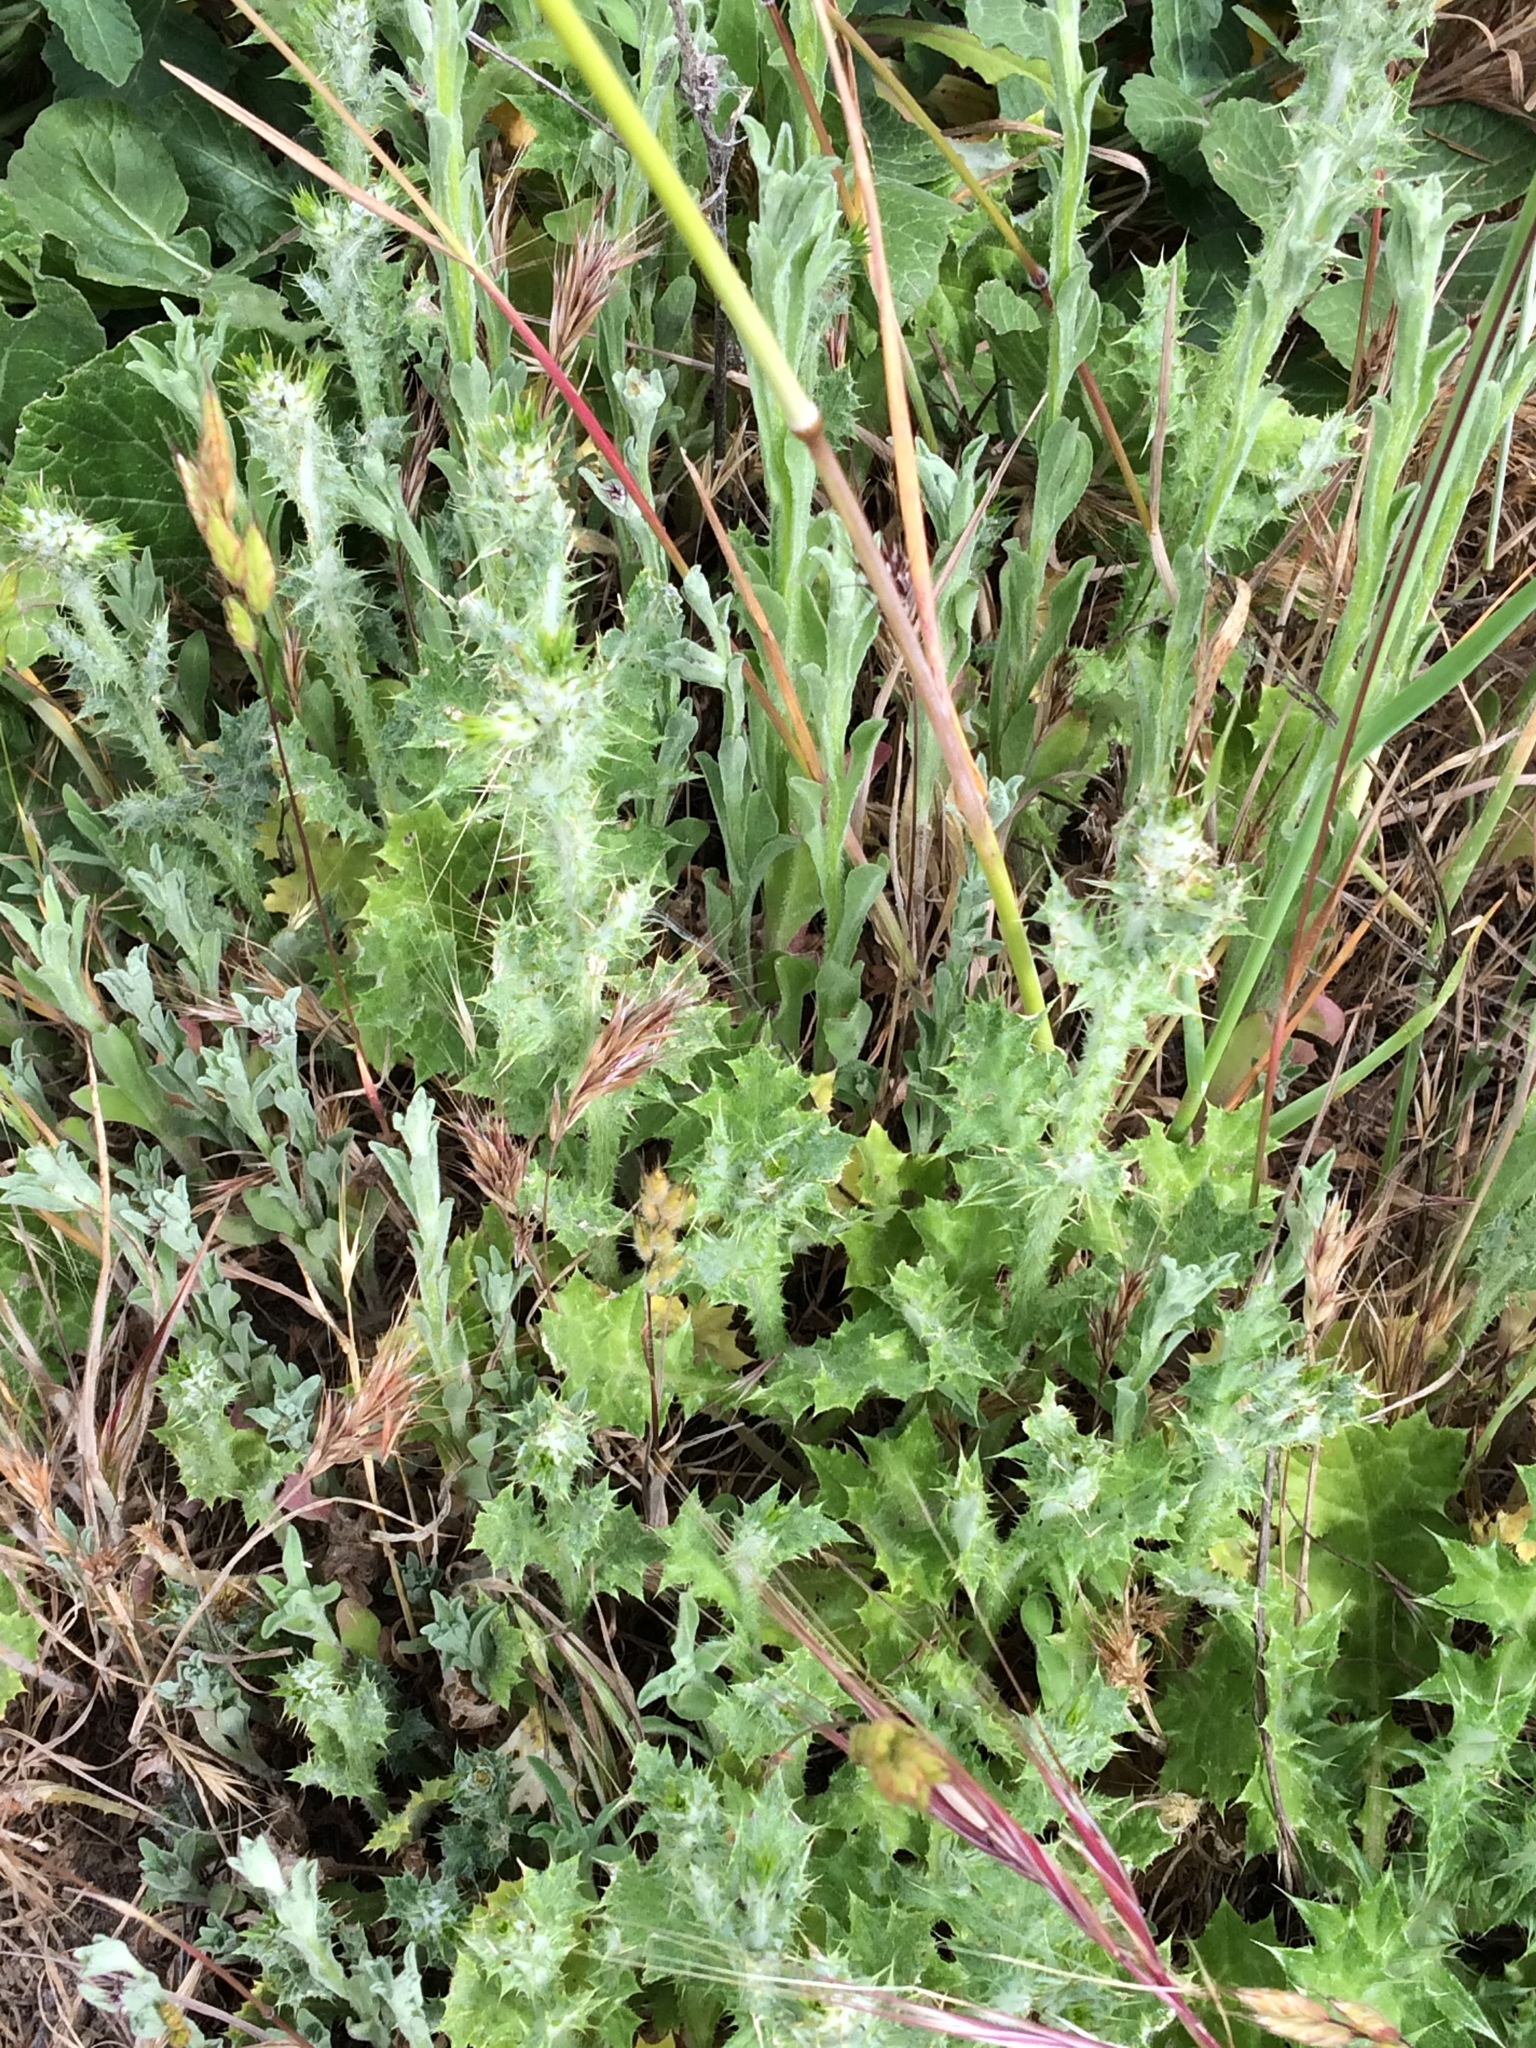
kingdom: Plantae
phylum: Tracheophyta
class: Magnoliopsida
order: Asterales
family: Asteraceae
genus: Carduus
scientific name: Carduus pycnocephalus
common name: Plymouth thistle
